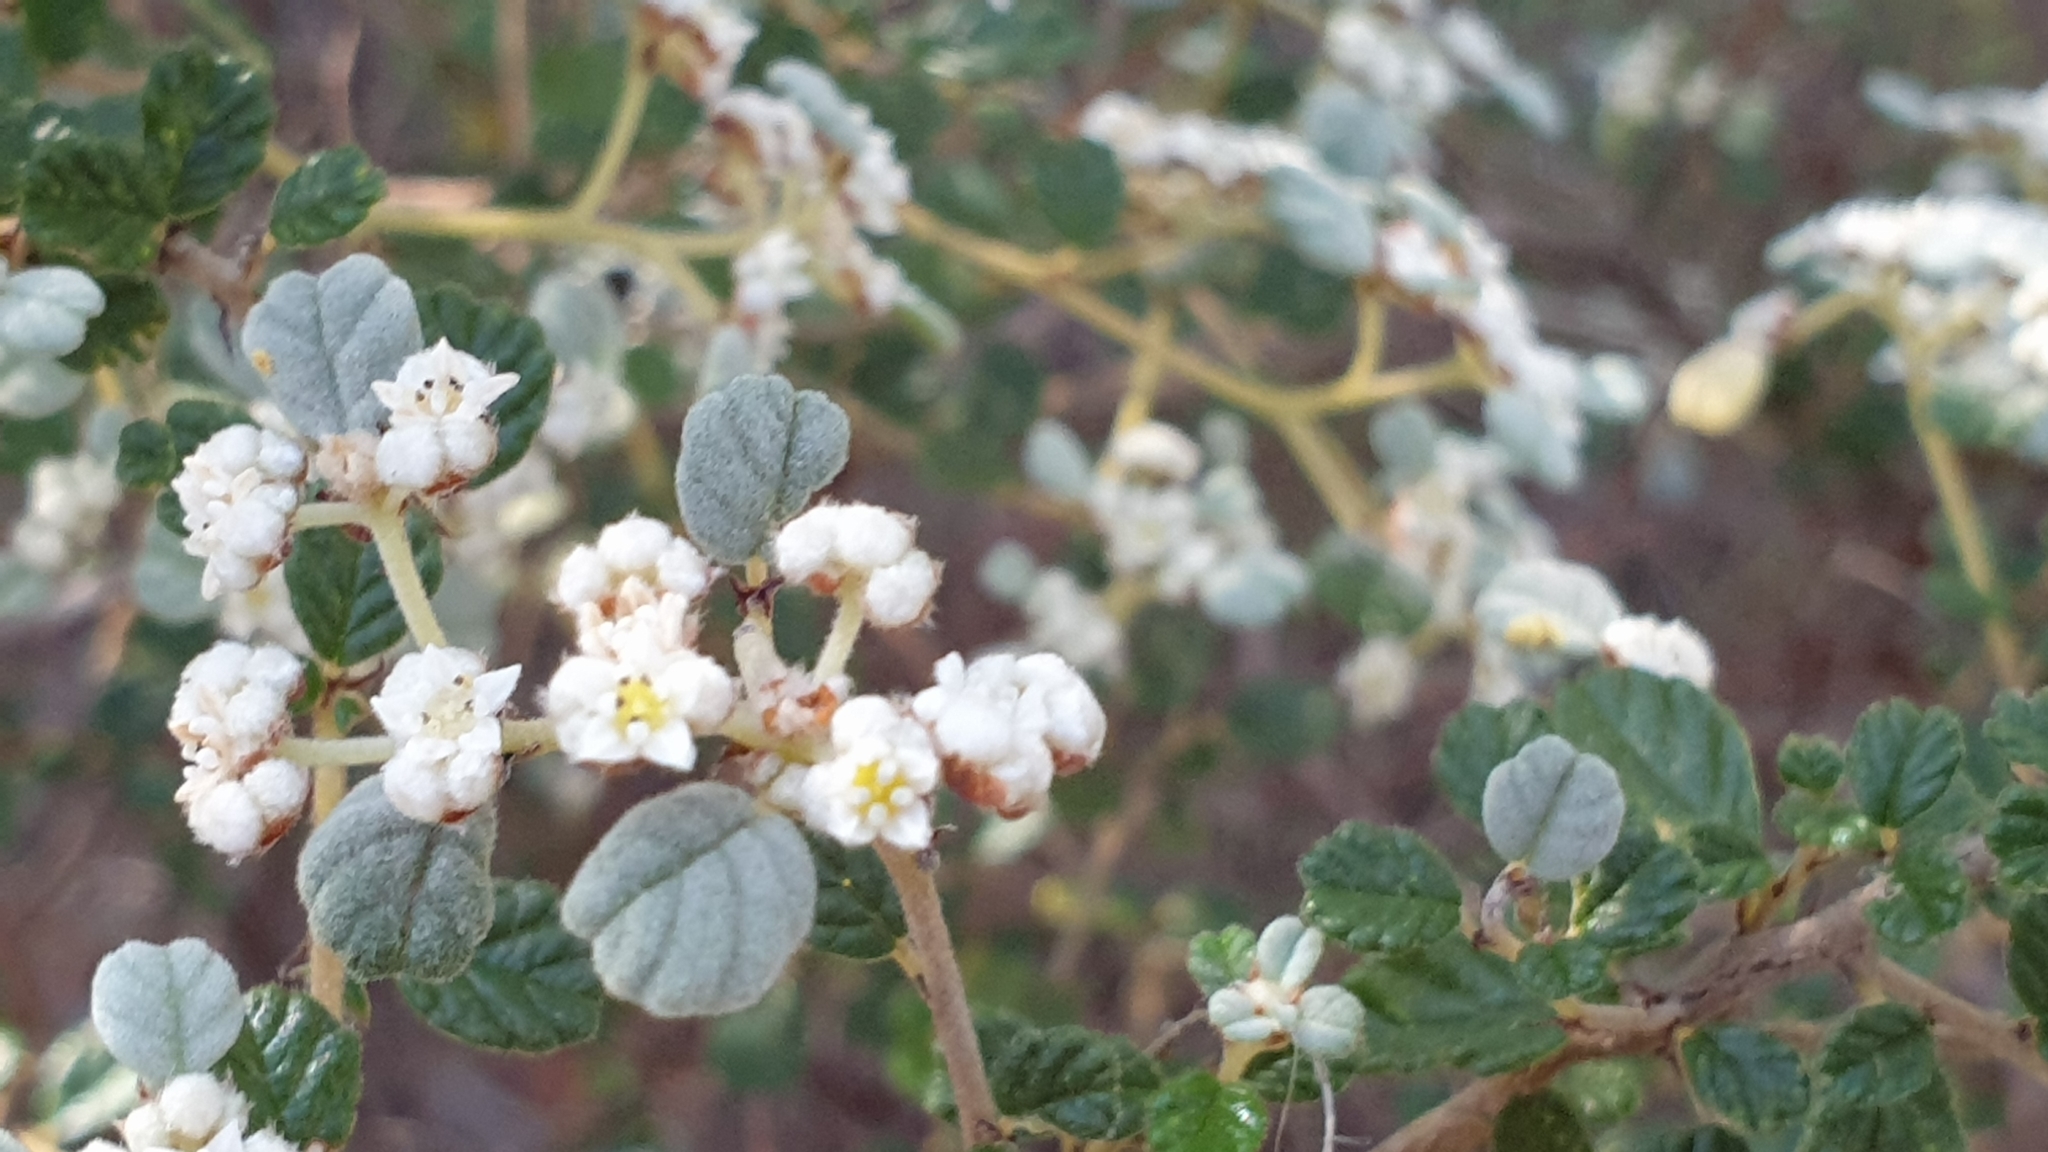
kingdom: Plantae
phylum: Tracheophyta
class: Magnoliopsida
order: Rosales
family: Rhamnaceae
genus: Spyridium
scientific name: Spyridium parvifolium
